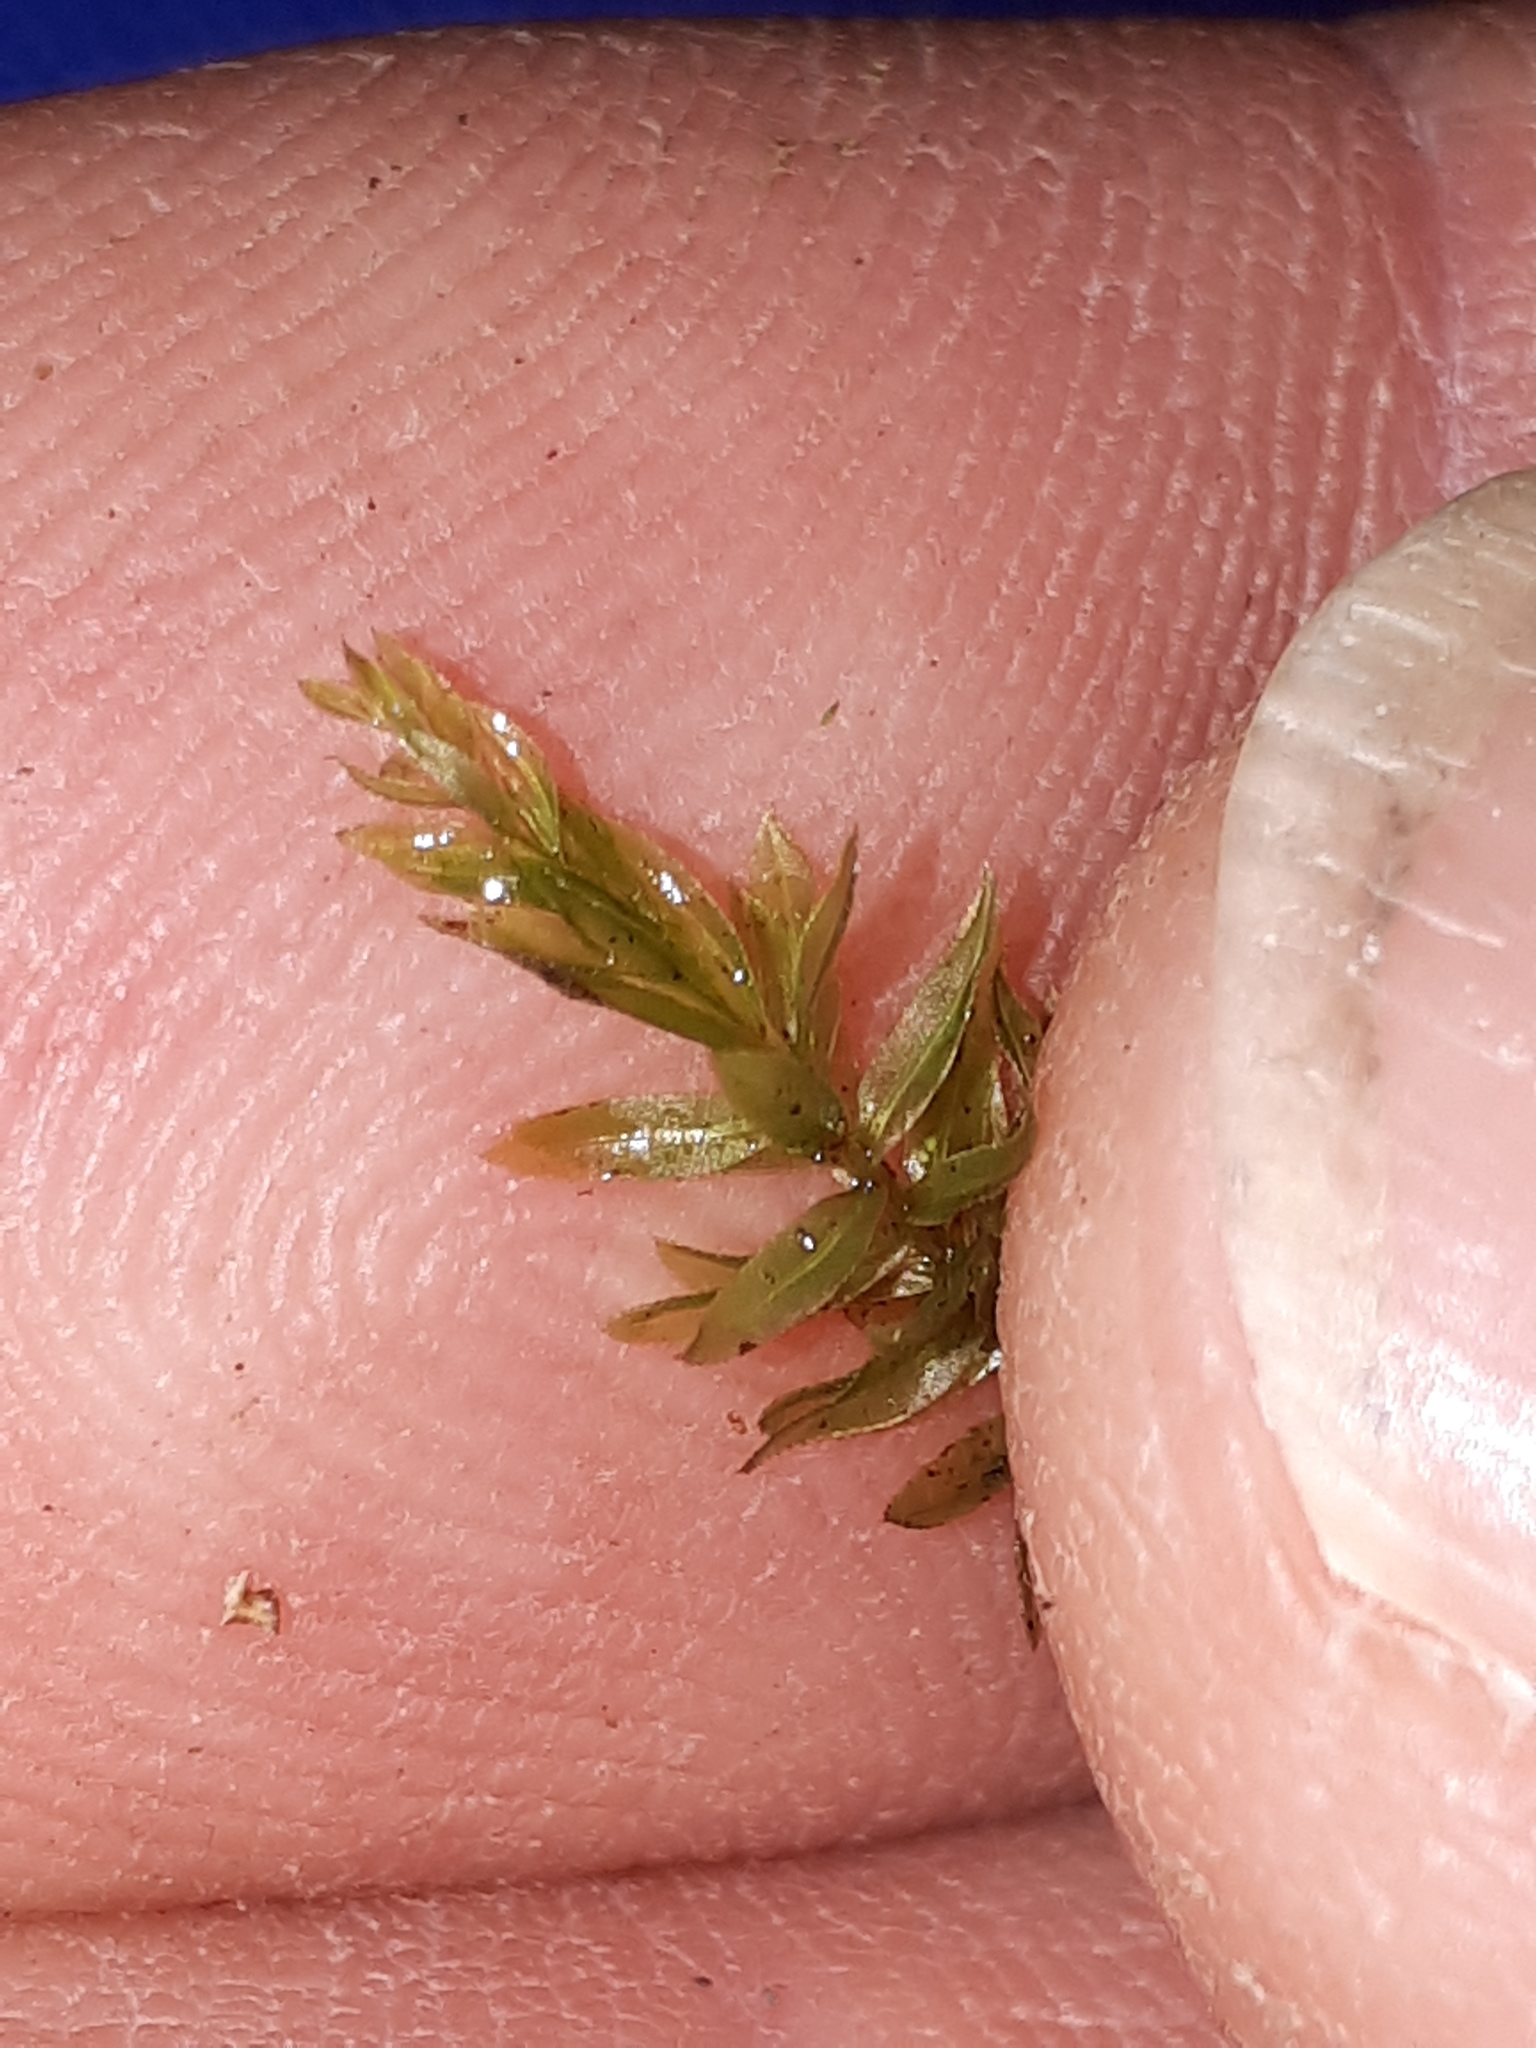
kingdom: Plantae
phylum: Bryophyta
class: Bryopsida
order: Bryales
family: Mniaceae
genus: Mnium
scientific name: Mnium hornum
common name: Swan's-neck leafy moss
